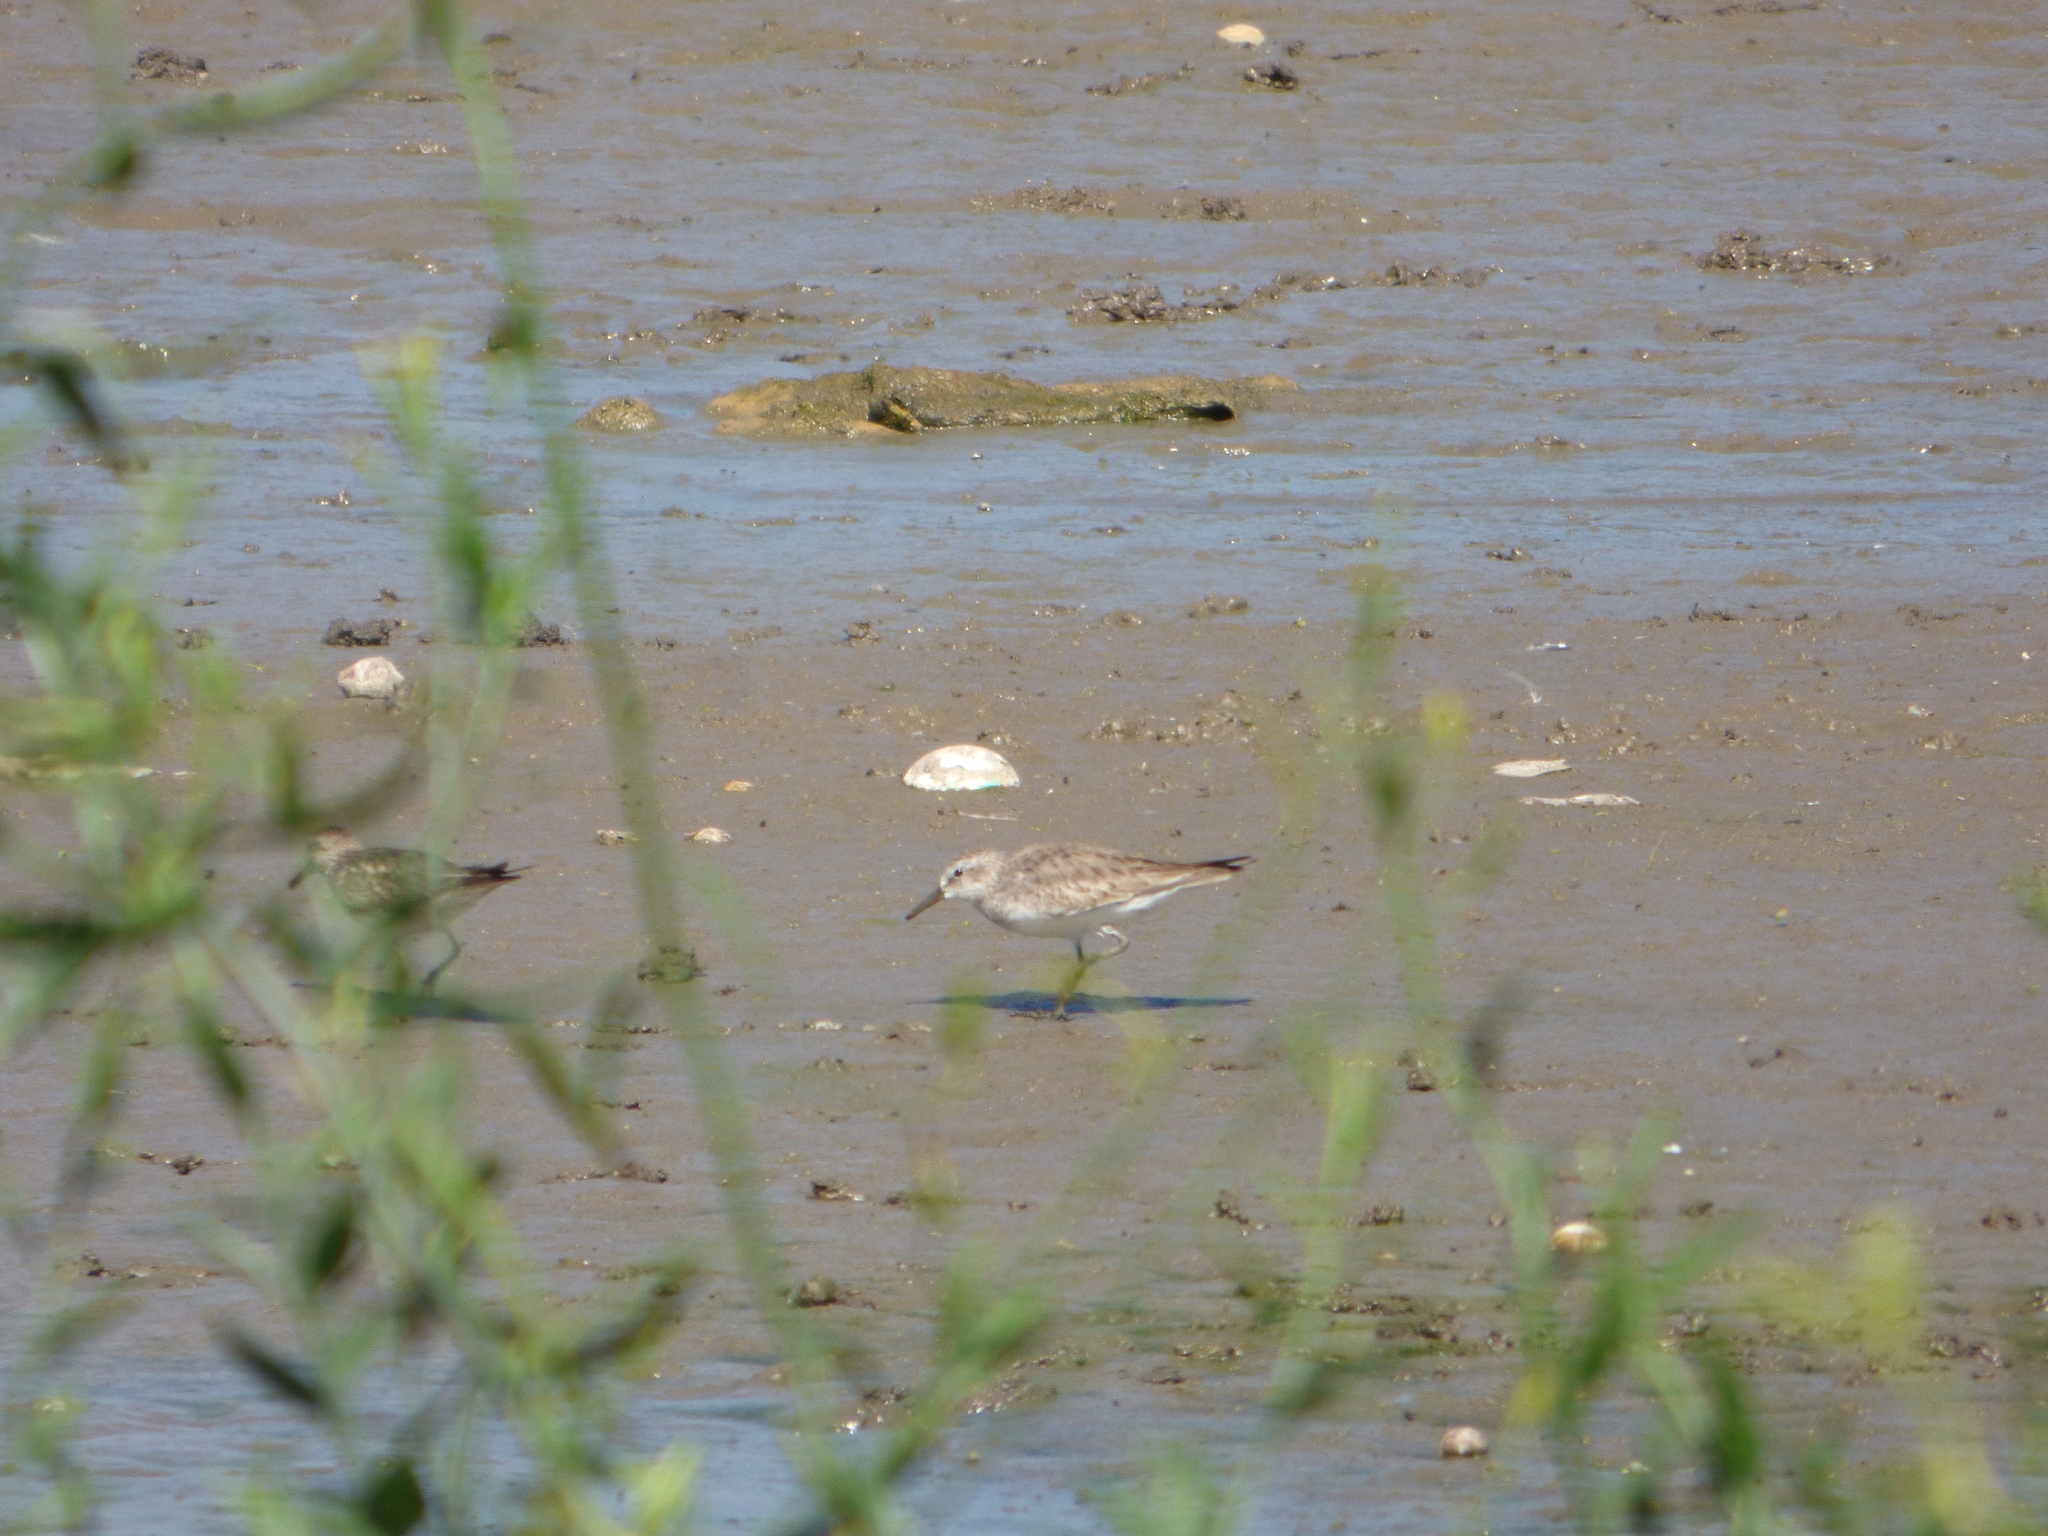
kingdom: Animalia
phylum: Chordata
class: Aves
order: Charadriiformes
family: Scolopacidae
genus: Calidris
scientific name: Calidris bairdii
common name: Baird's sandpiper
